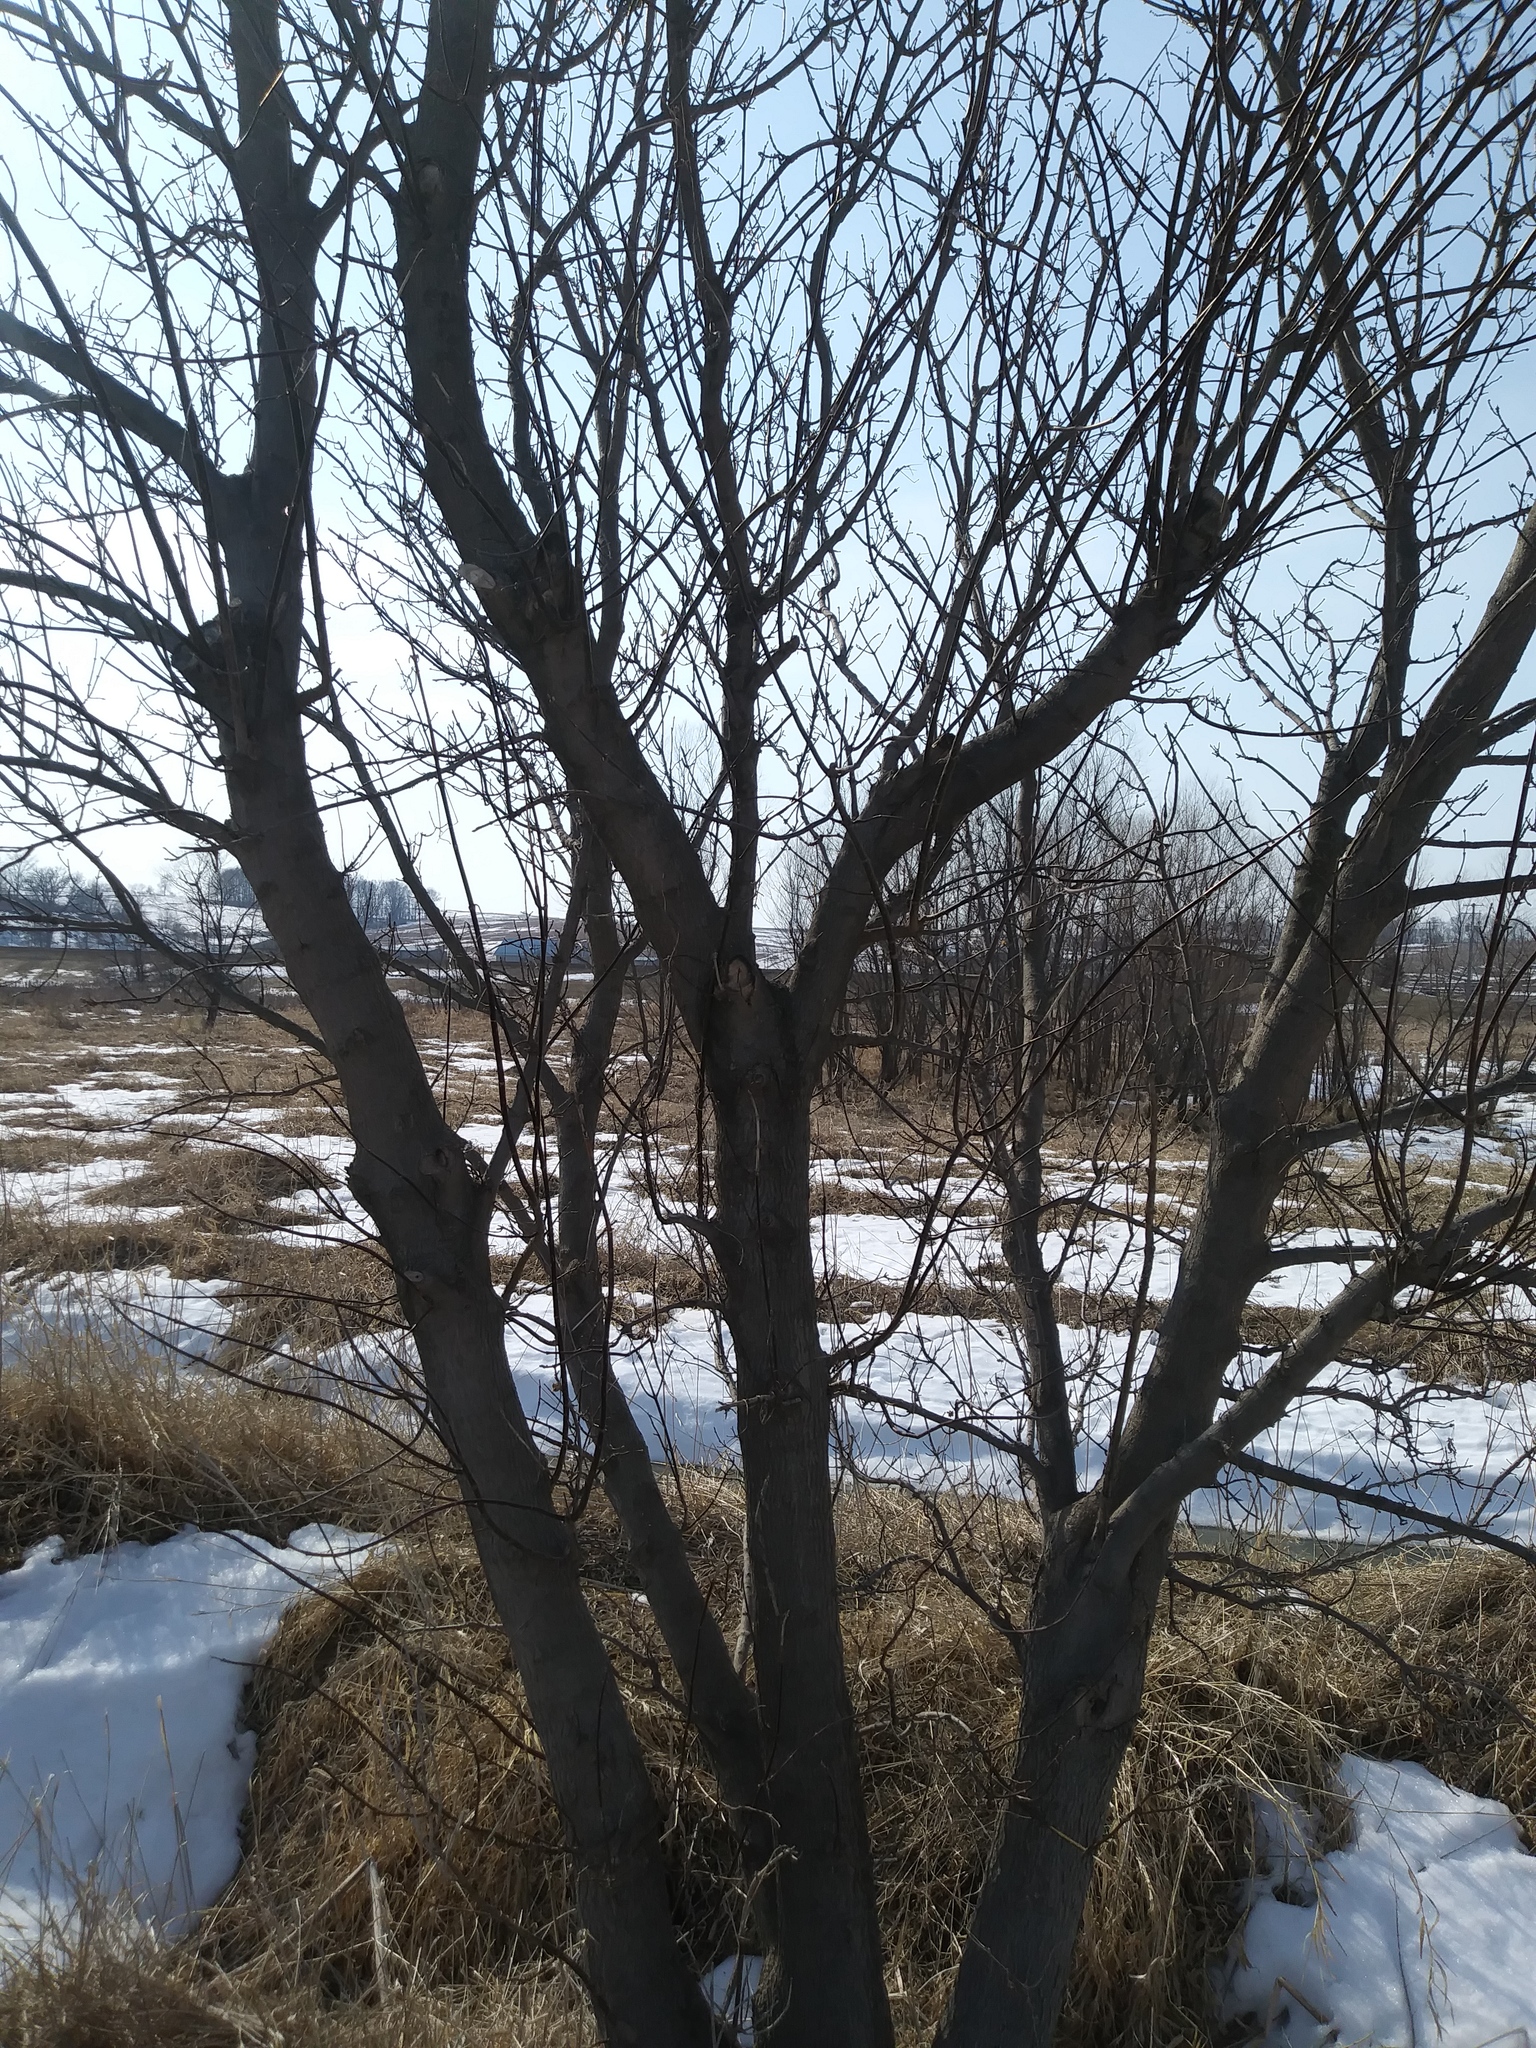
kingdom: Plantae
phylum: Tracheophyta
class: Magnoliopsida
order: Sapindales
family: Sapindaceae
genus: Acer
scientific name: Acer negundo
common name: Ashleaf maple
